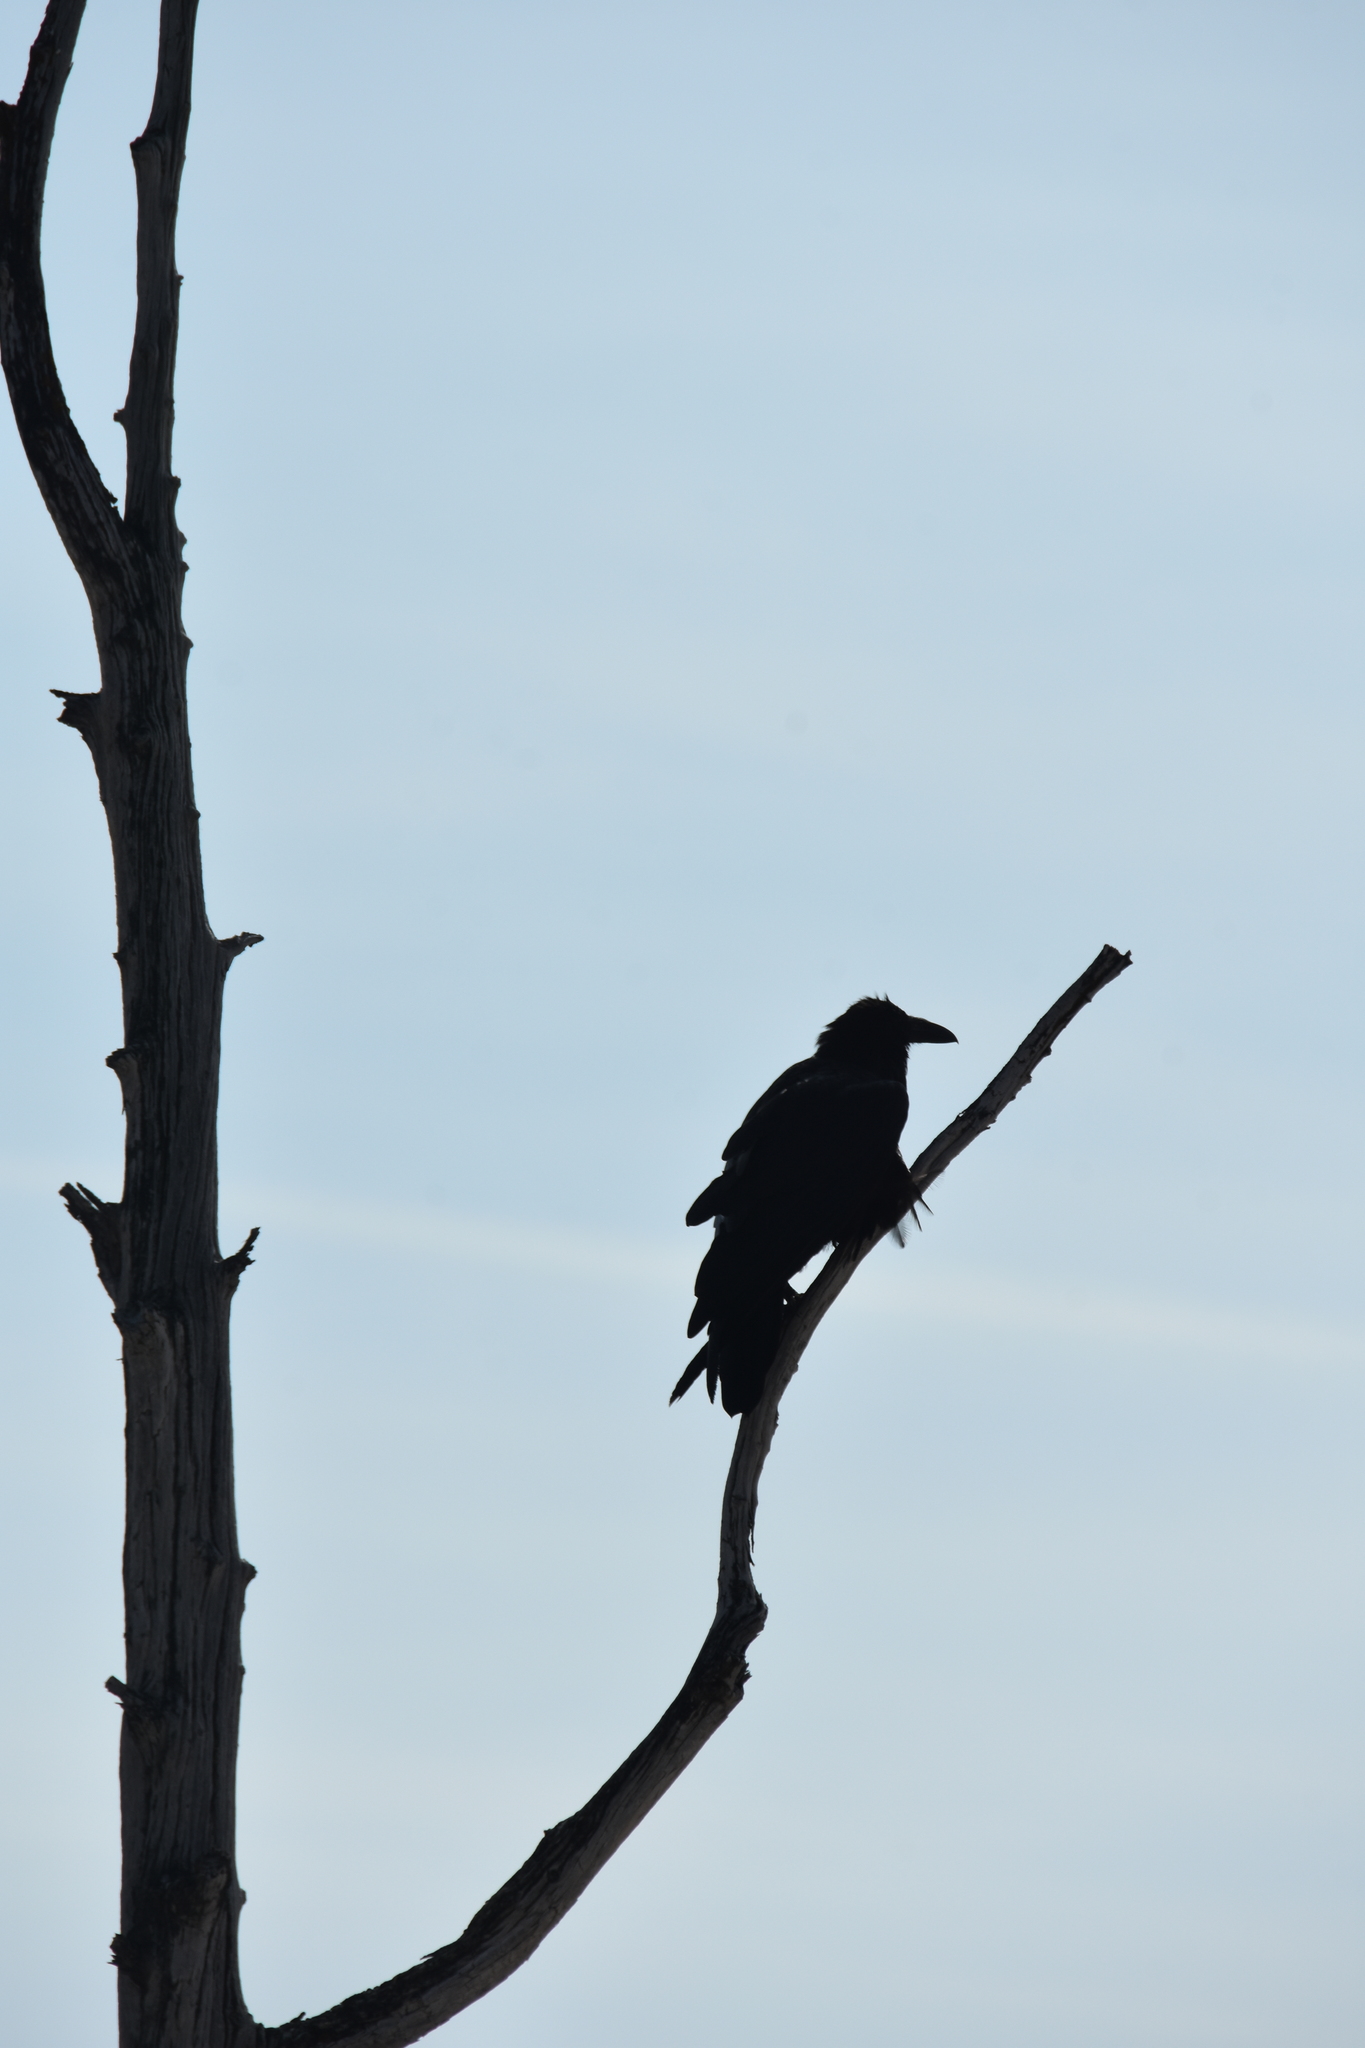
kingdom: Animalia
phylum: Chordata
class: Aves
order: Passeriformes
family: Corvidae
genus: Corvus
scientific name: Corvus corax
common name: Common raven
